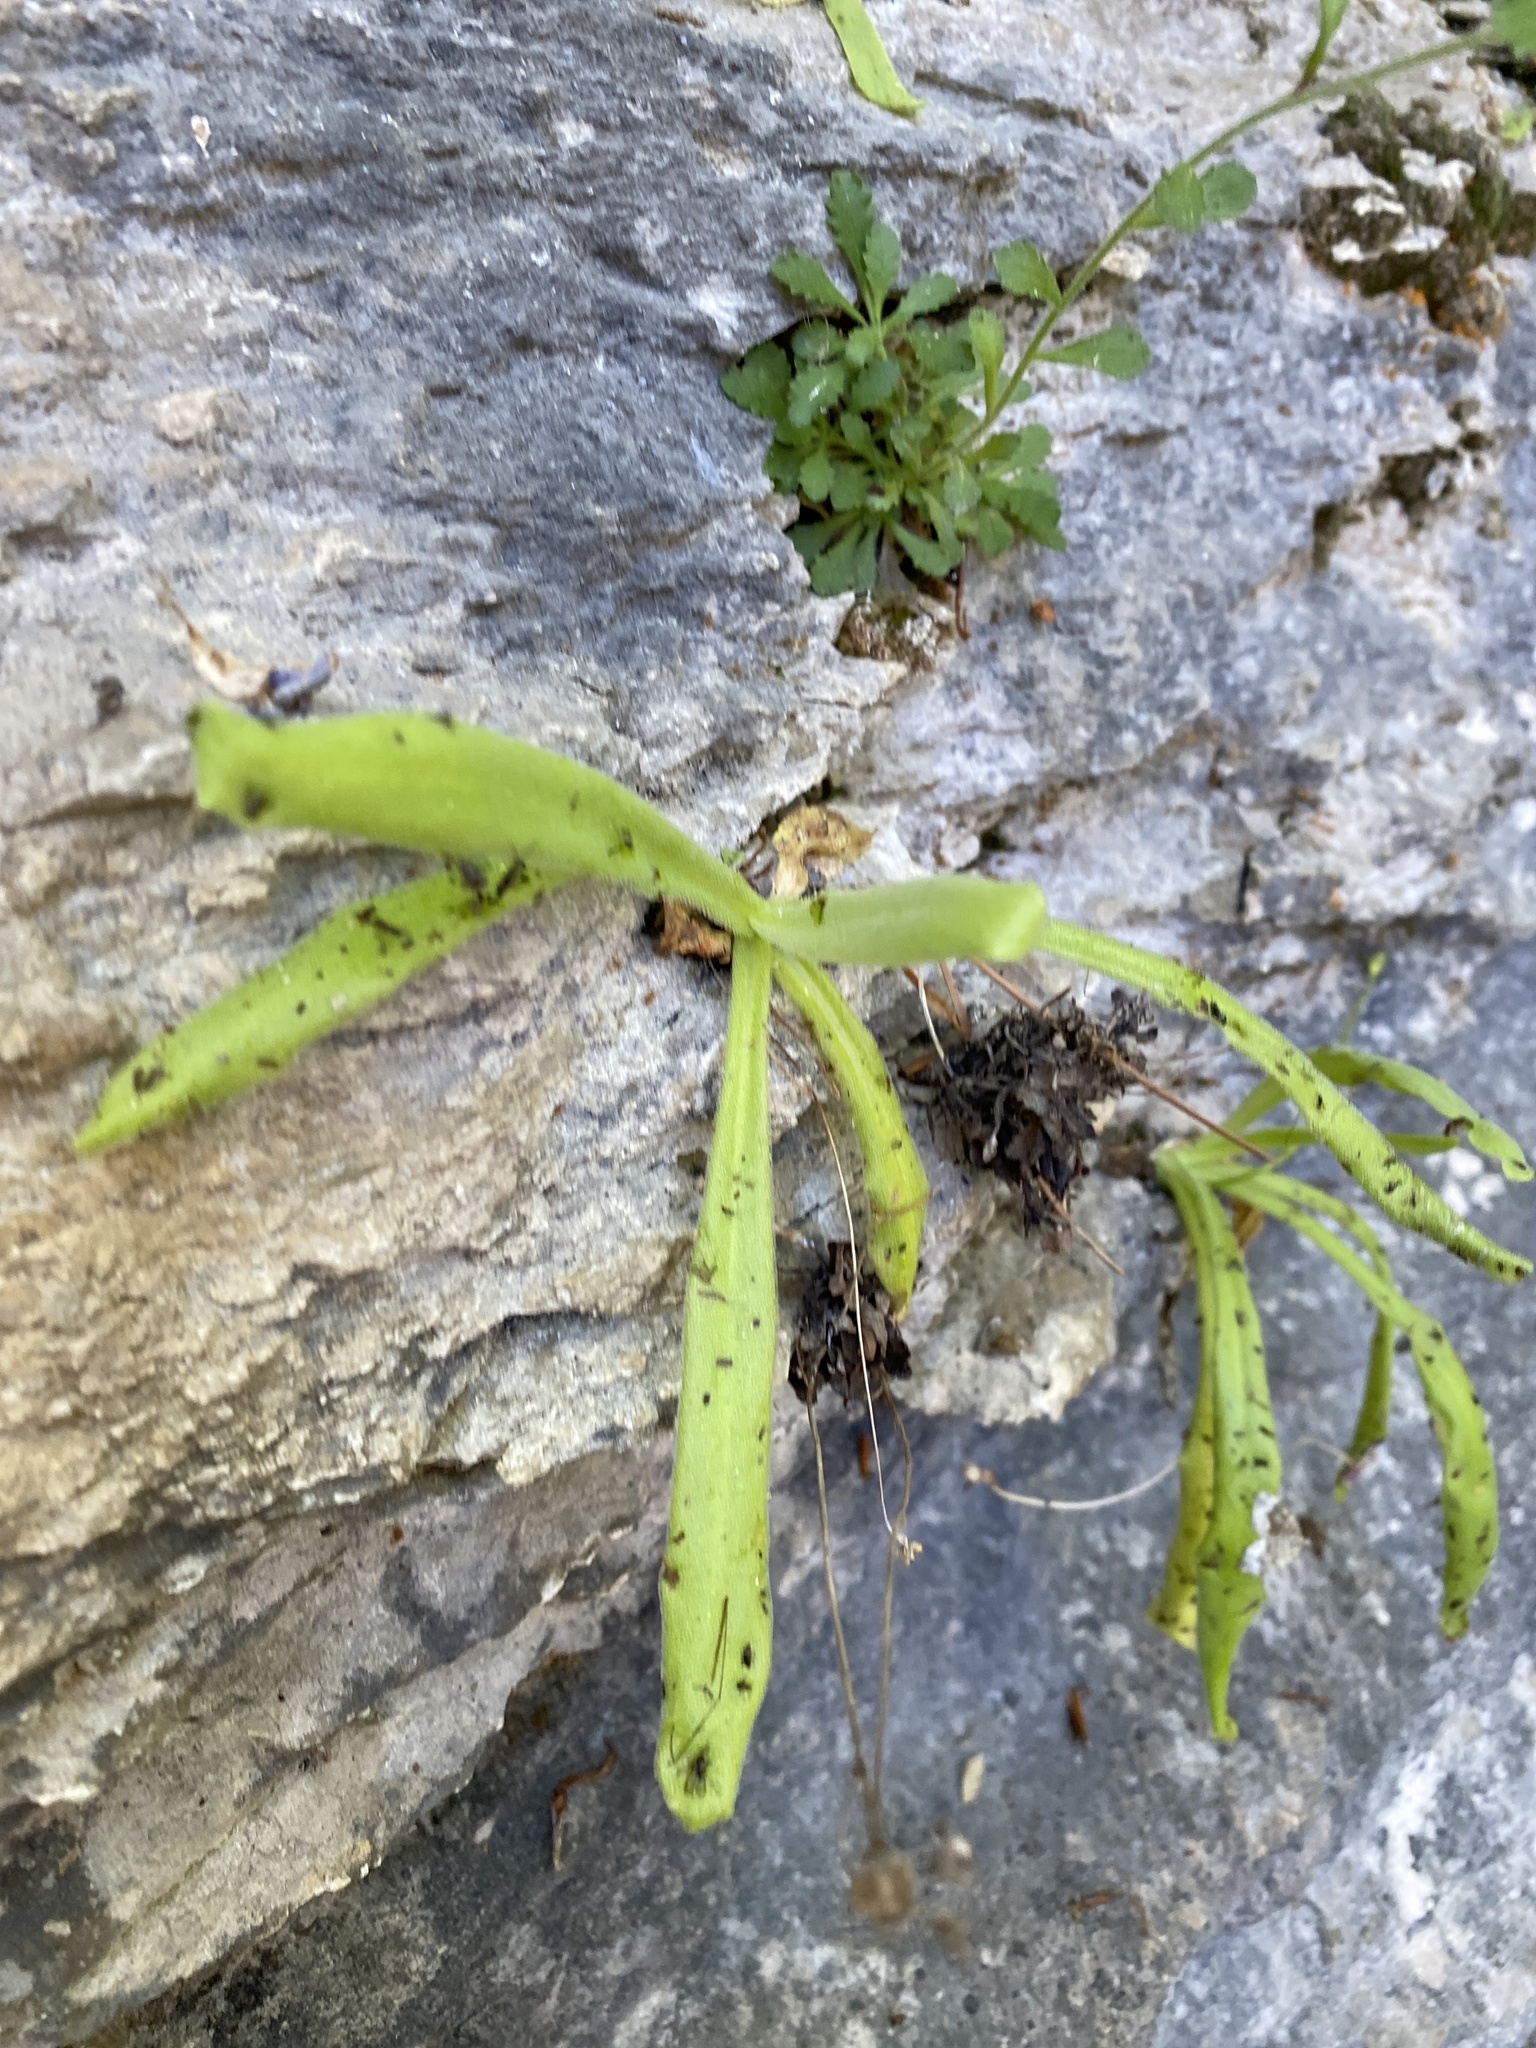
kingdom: Plantae
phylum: Tracheophyta
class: Magnoliopsida
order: Lamiales
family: Lentibulariaceae
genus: Pinguicula
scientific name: Pinguicula longifolia
